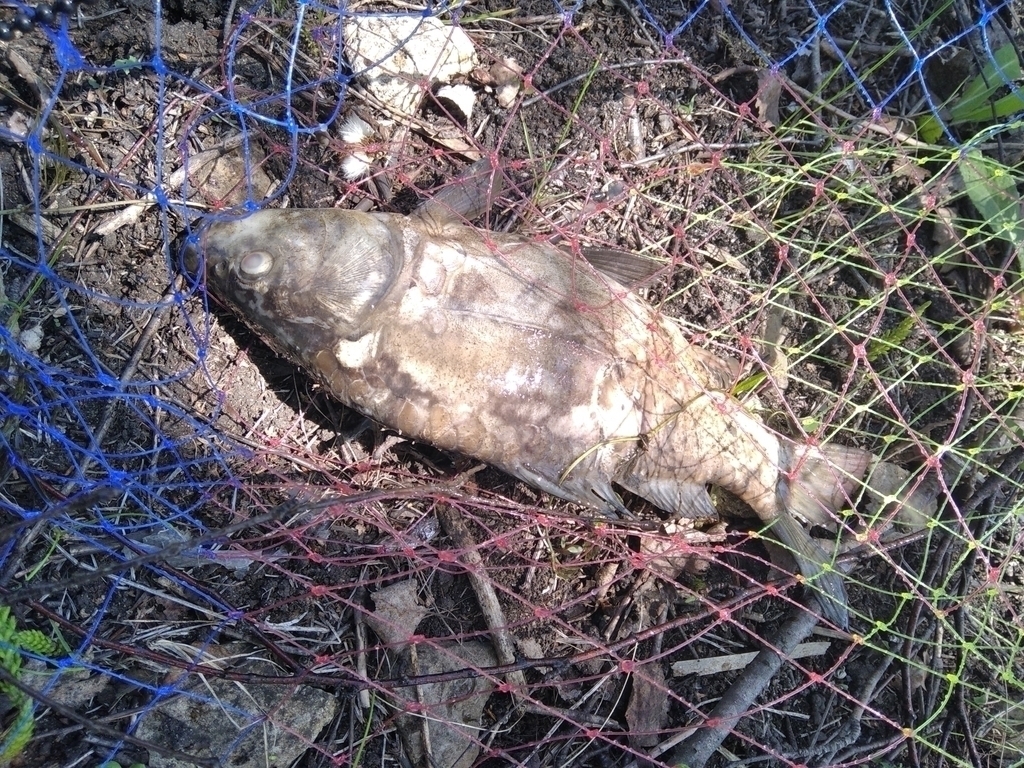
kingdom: Animalia
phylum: Chordata
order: Cypriniformes
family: Cyprinidae
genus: Cyprinus
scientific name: Cyprinus carpio
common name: Common carp
